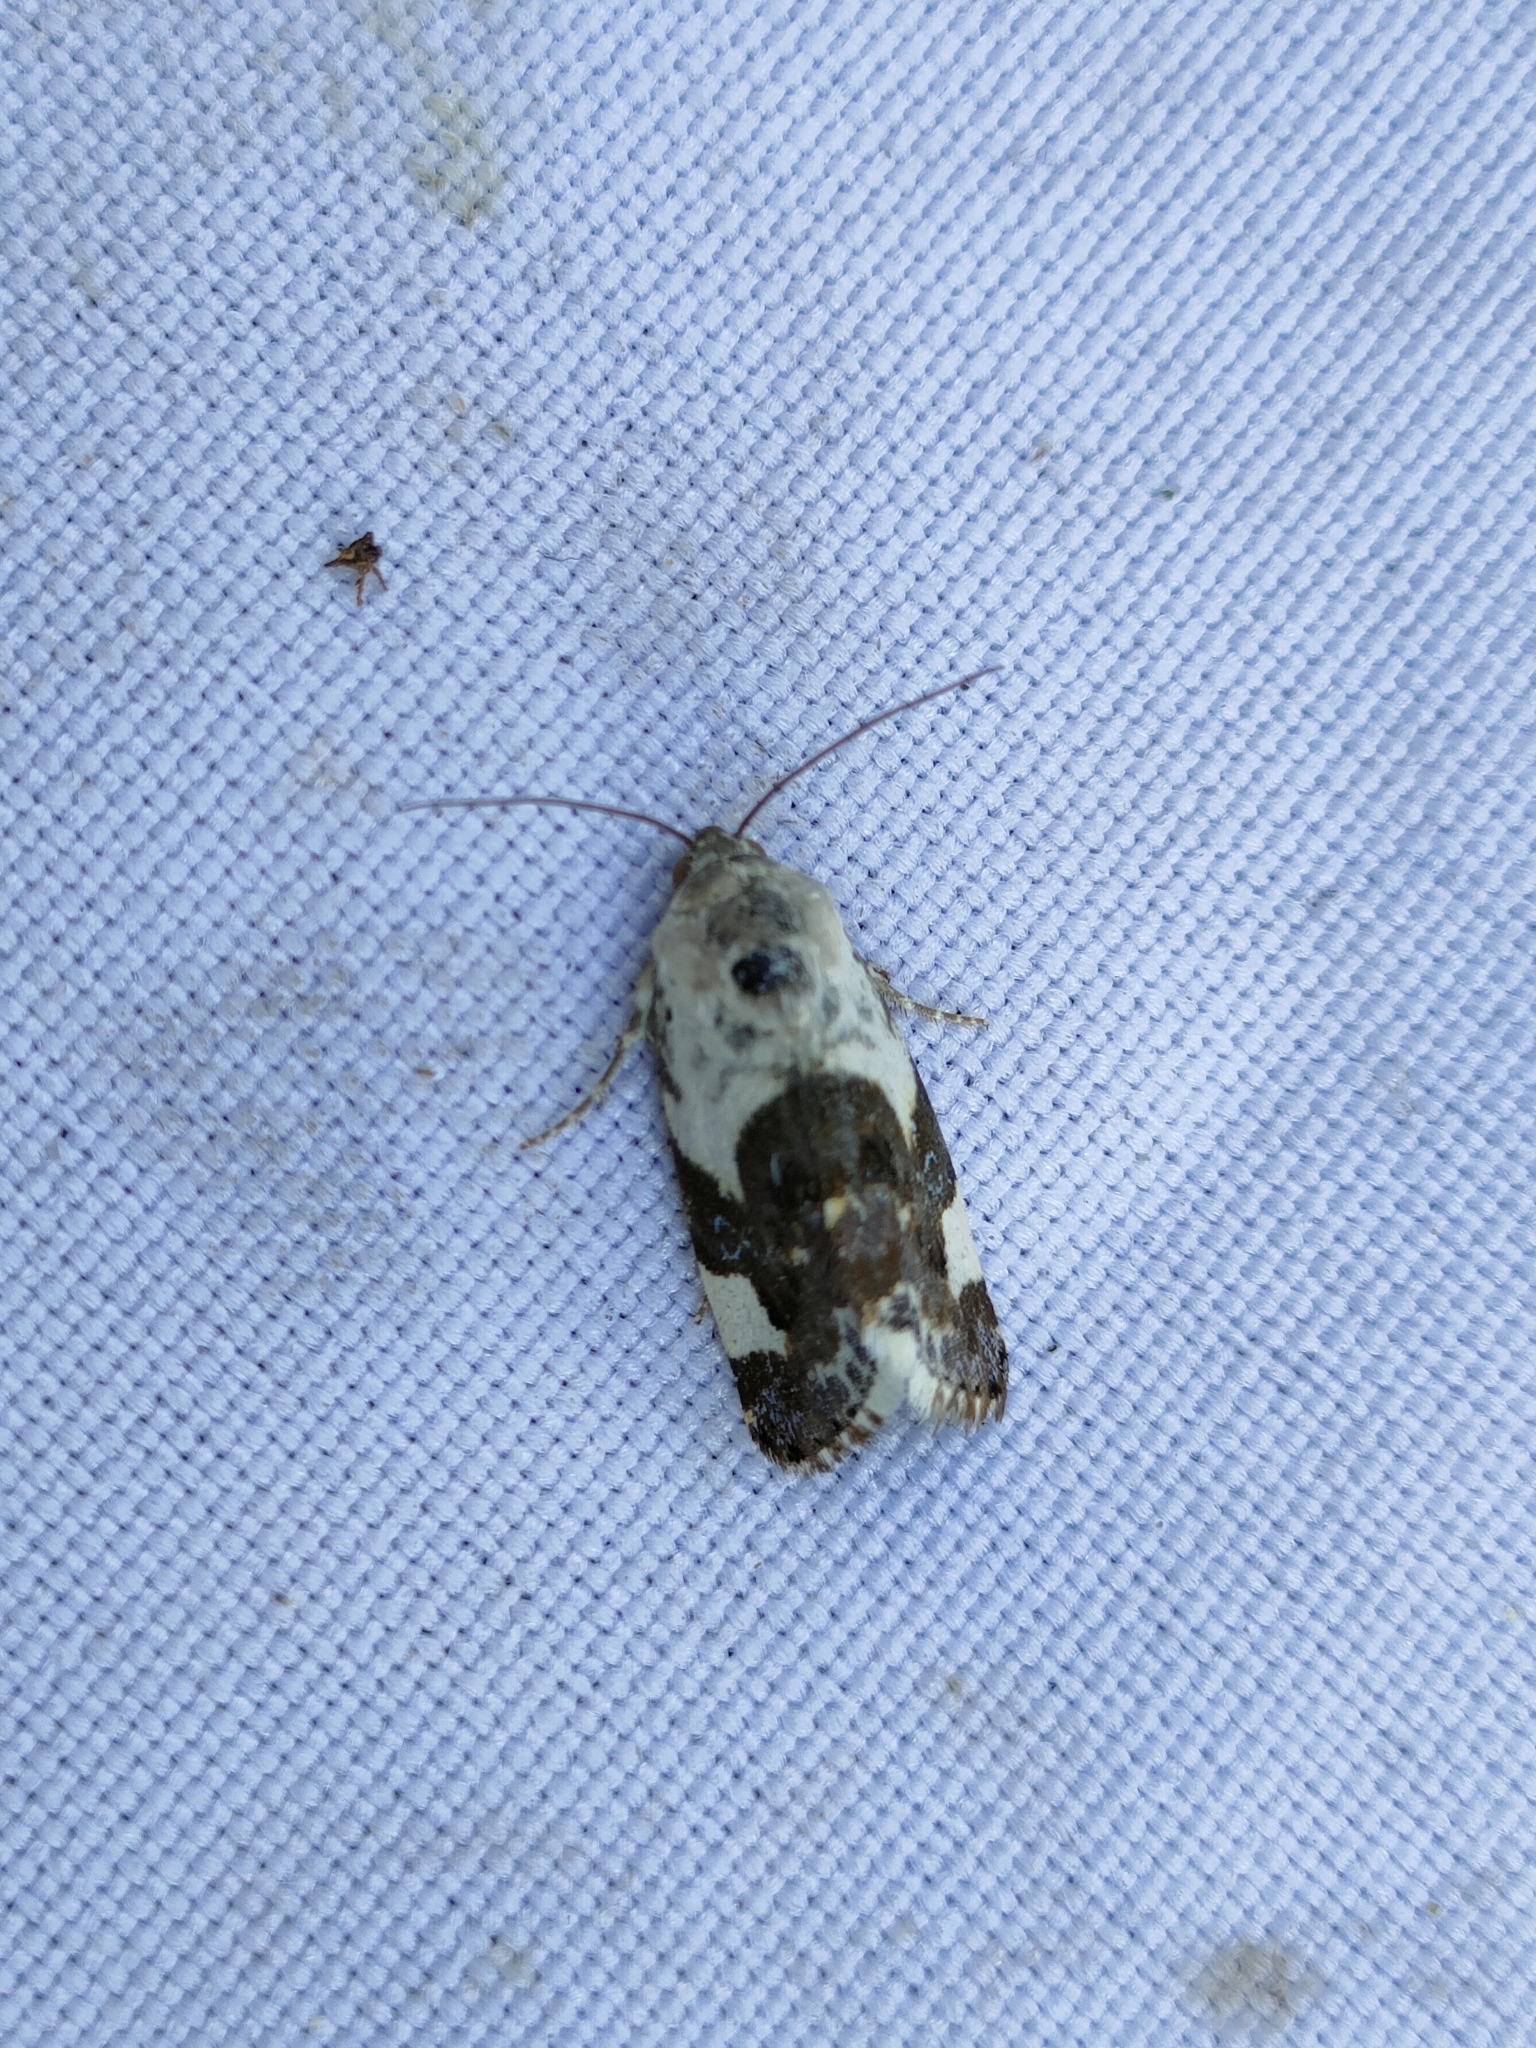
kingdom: Animalia
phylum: Arthropoda
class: Insecta
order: Lepidoptera
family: Noctuidae
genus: Acontia
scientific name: Acontia lucida
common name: Pale shoulder
